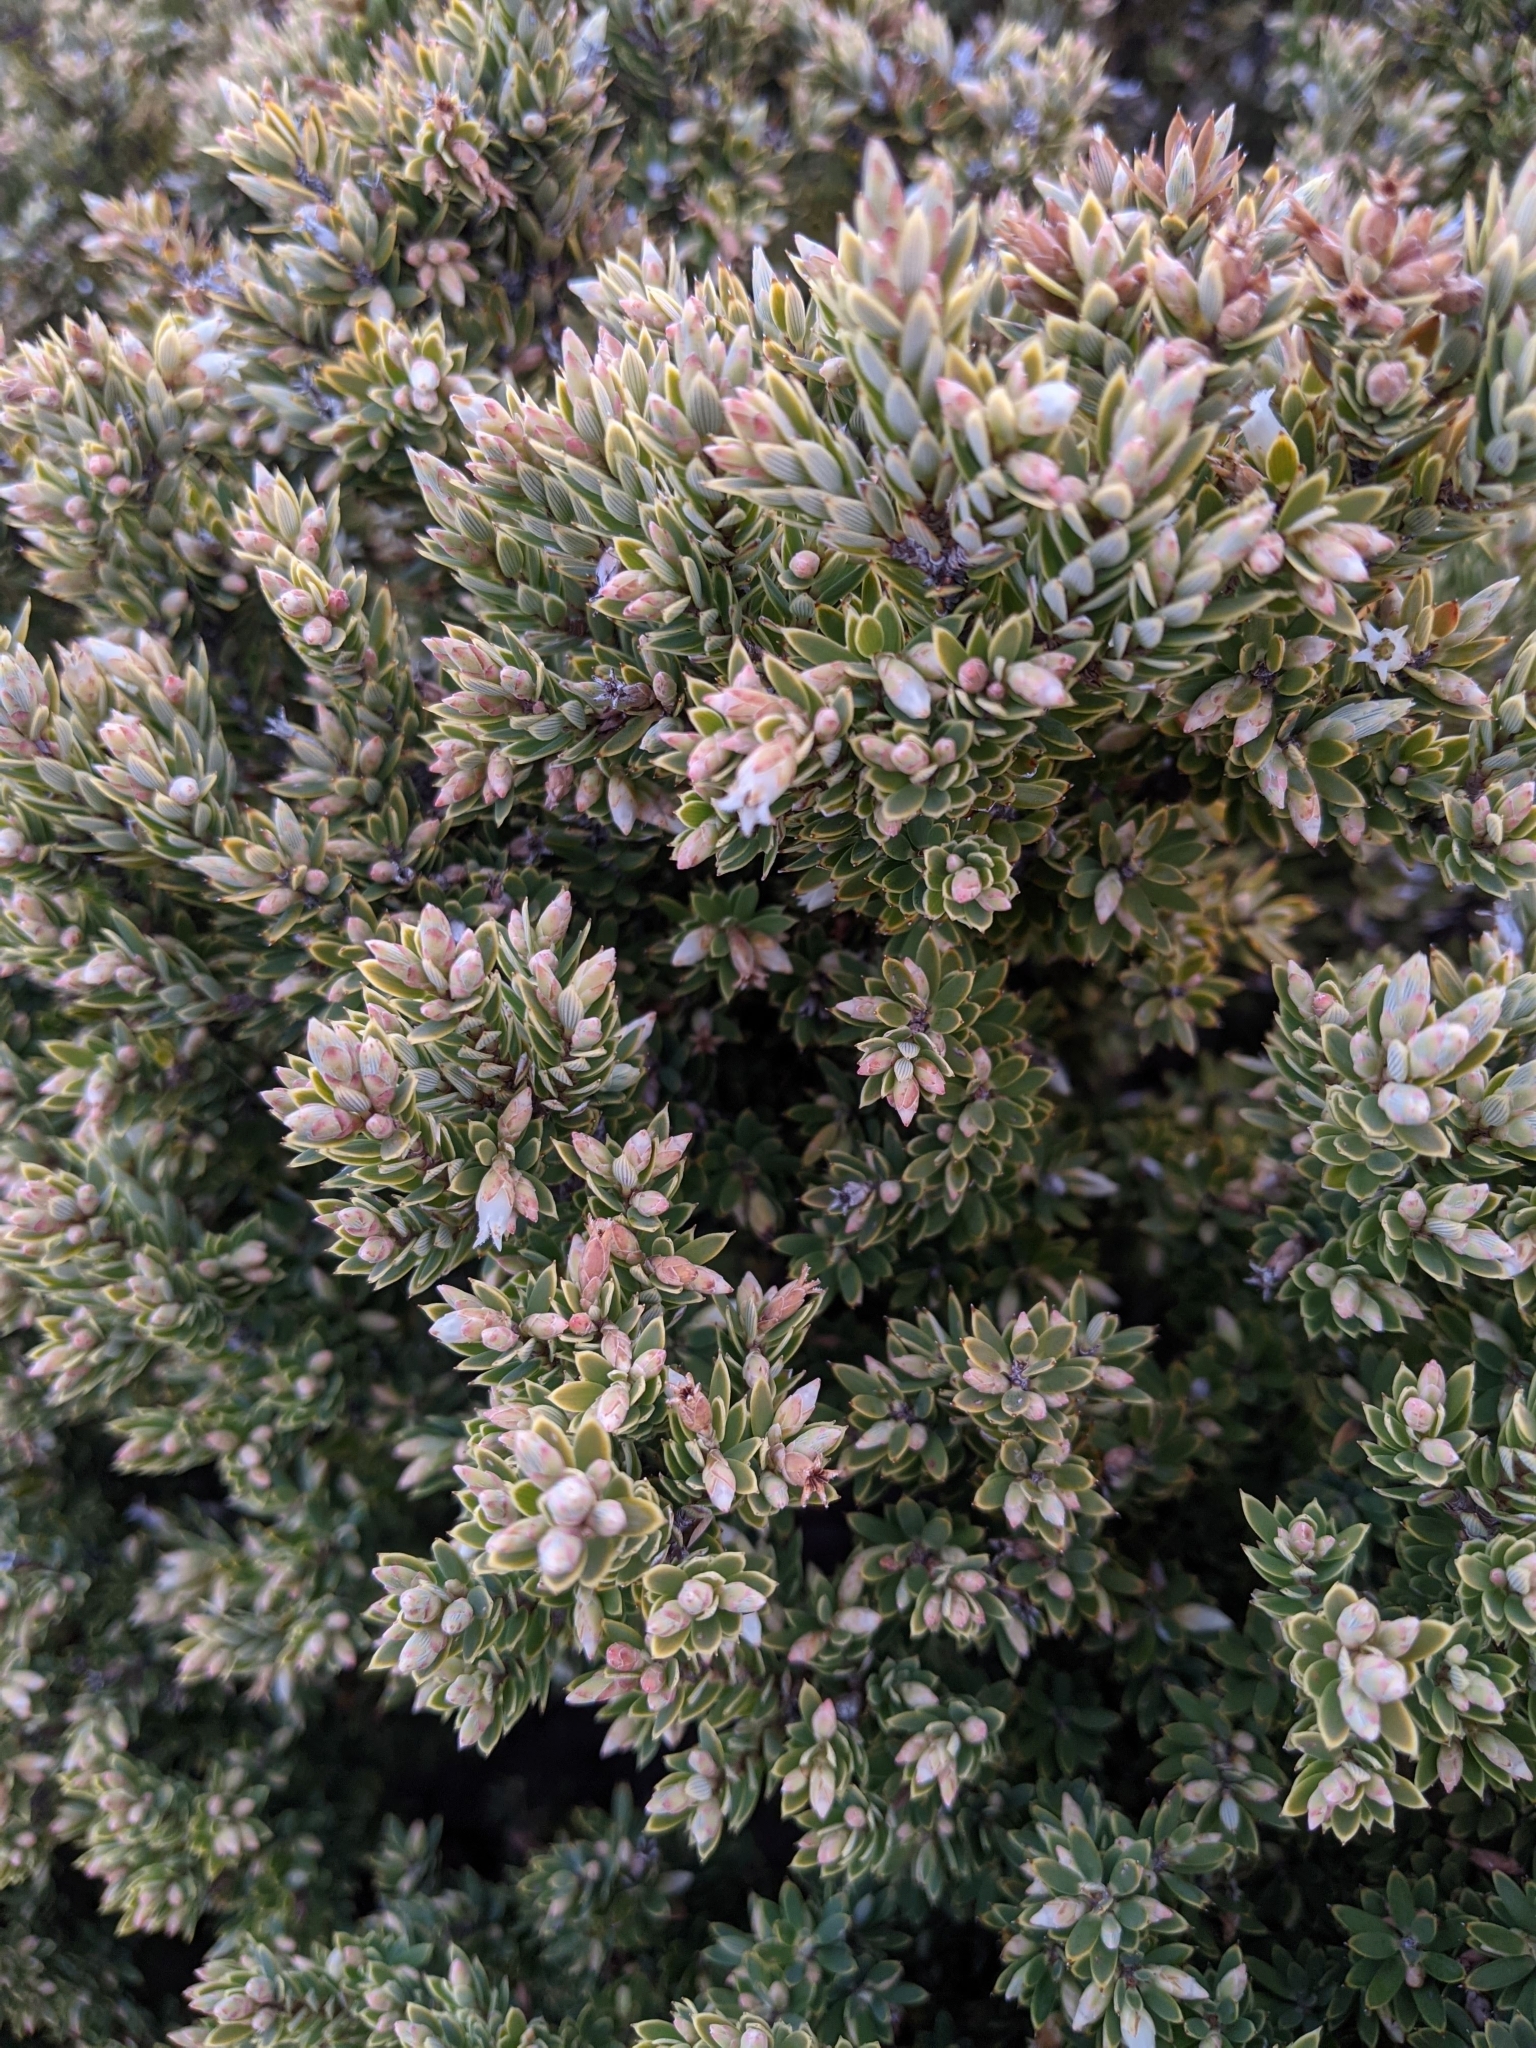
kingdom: Plantae
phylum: Tracheophyta
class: Magnoliopsida
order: Ericales
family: Ericaceae
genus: Leptecophylla
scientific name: Leptecophylla tameiameiae
